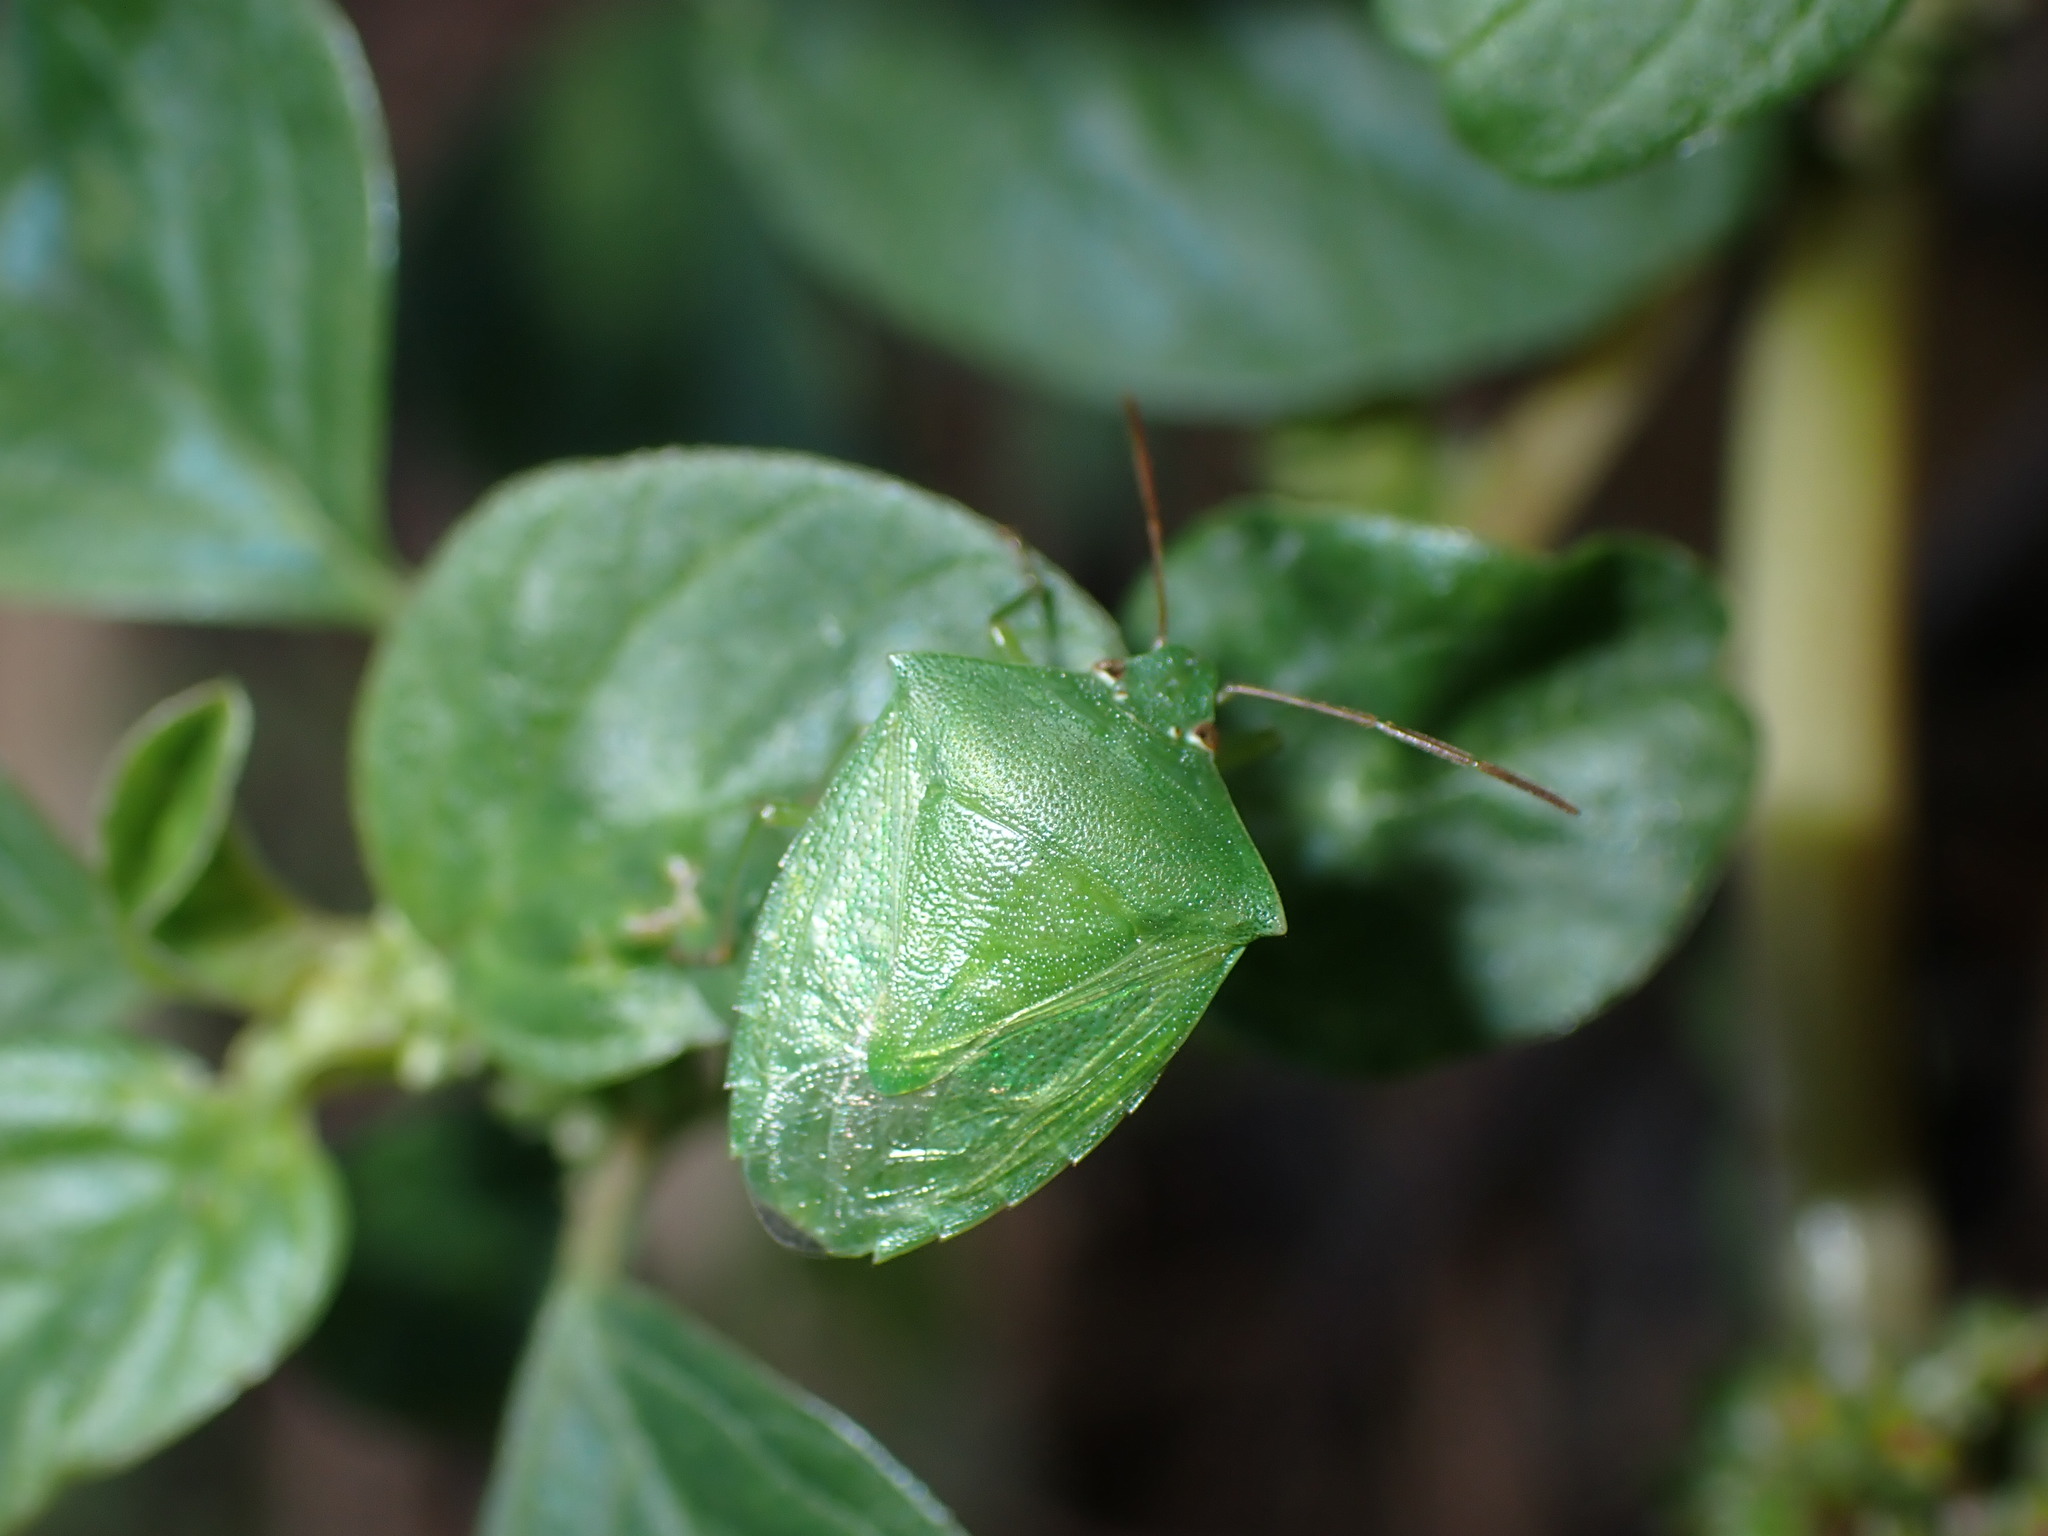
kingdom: Animalia
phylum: Arthropoda
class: Insecta
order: Hemiptera
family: Pentatomidae
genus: Cuspicona
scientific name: Cuspicona simplex
